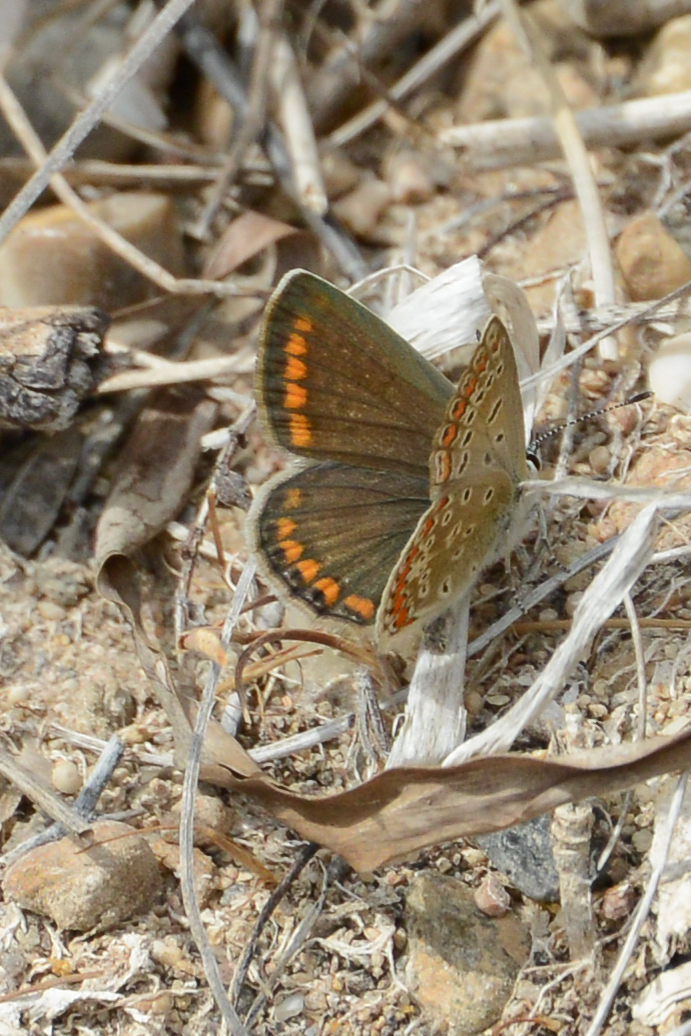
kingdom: Animalia
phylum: Arthropoda
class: Insecta
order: Lepidoptera
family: Lycaenidae
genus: Polyommatus
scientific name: Polyommatus icarus
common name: Common blue
